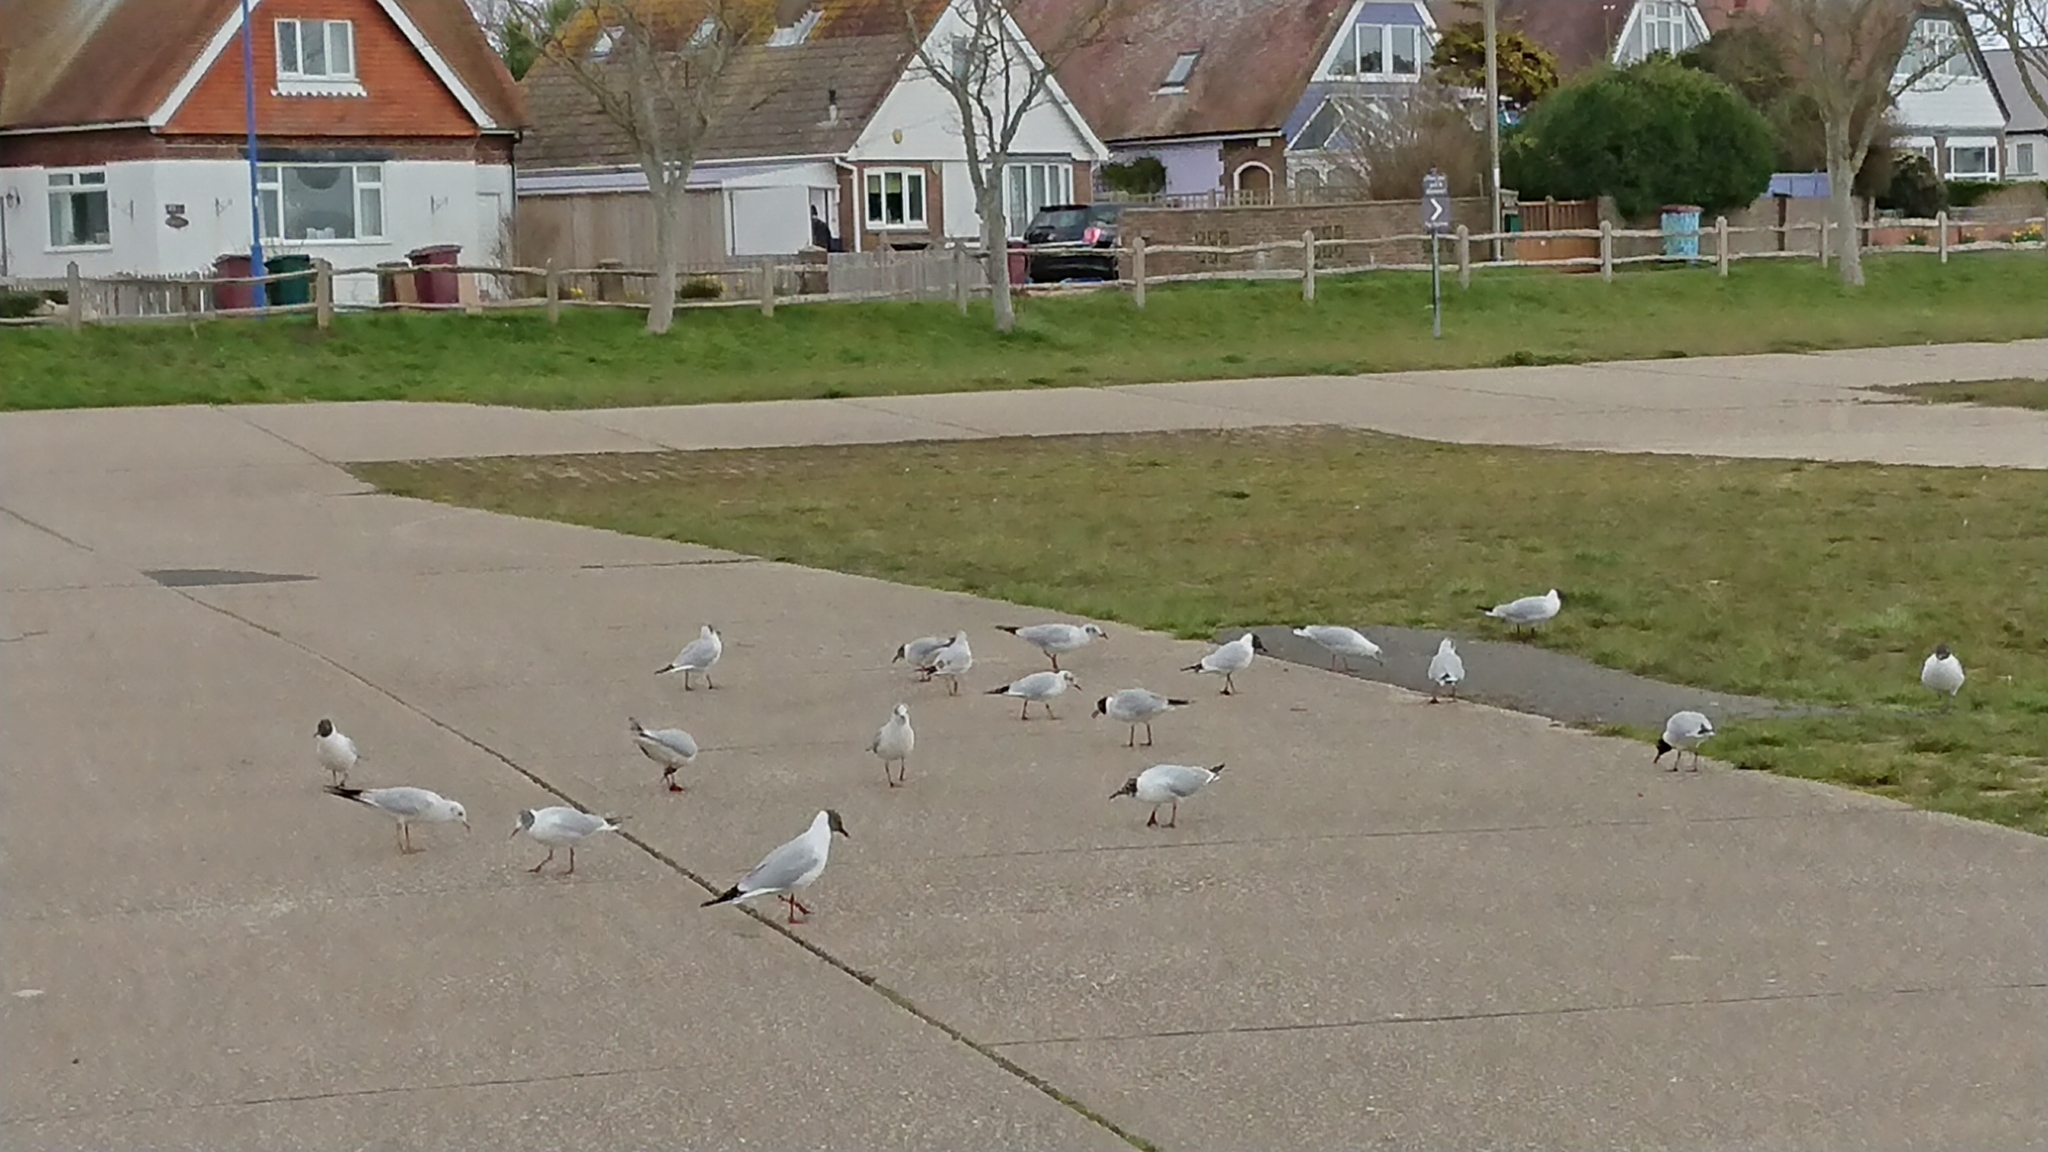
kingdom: Animalia
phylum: Chordata
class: Aves
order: Charadriiformes
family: Laridae
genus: Chroicocephalus
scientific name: Chroicocephalus ridibundus
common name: Black-headed gull
